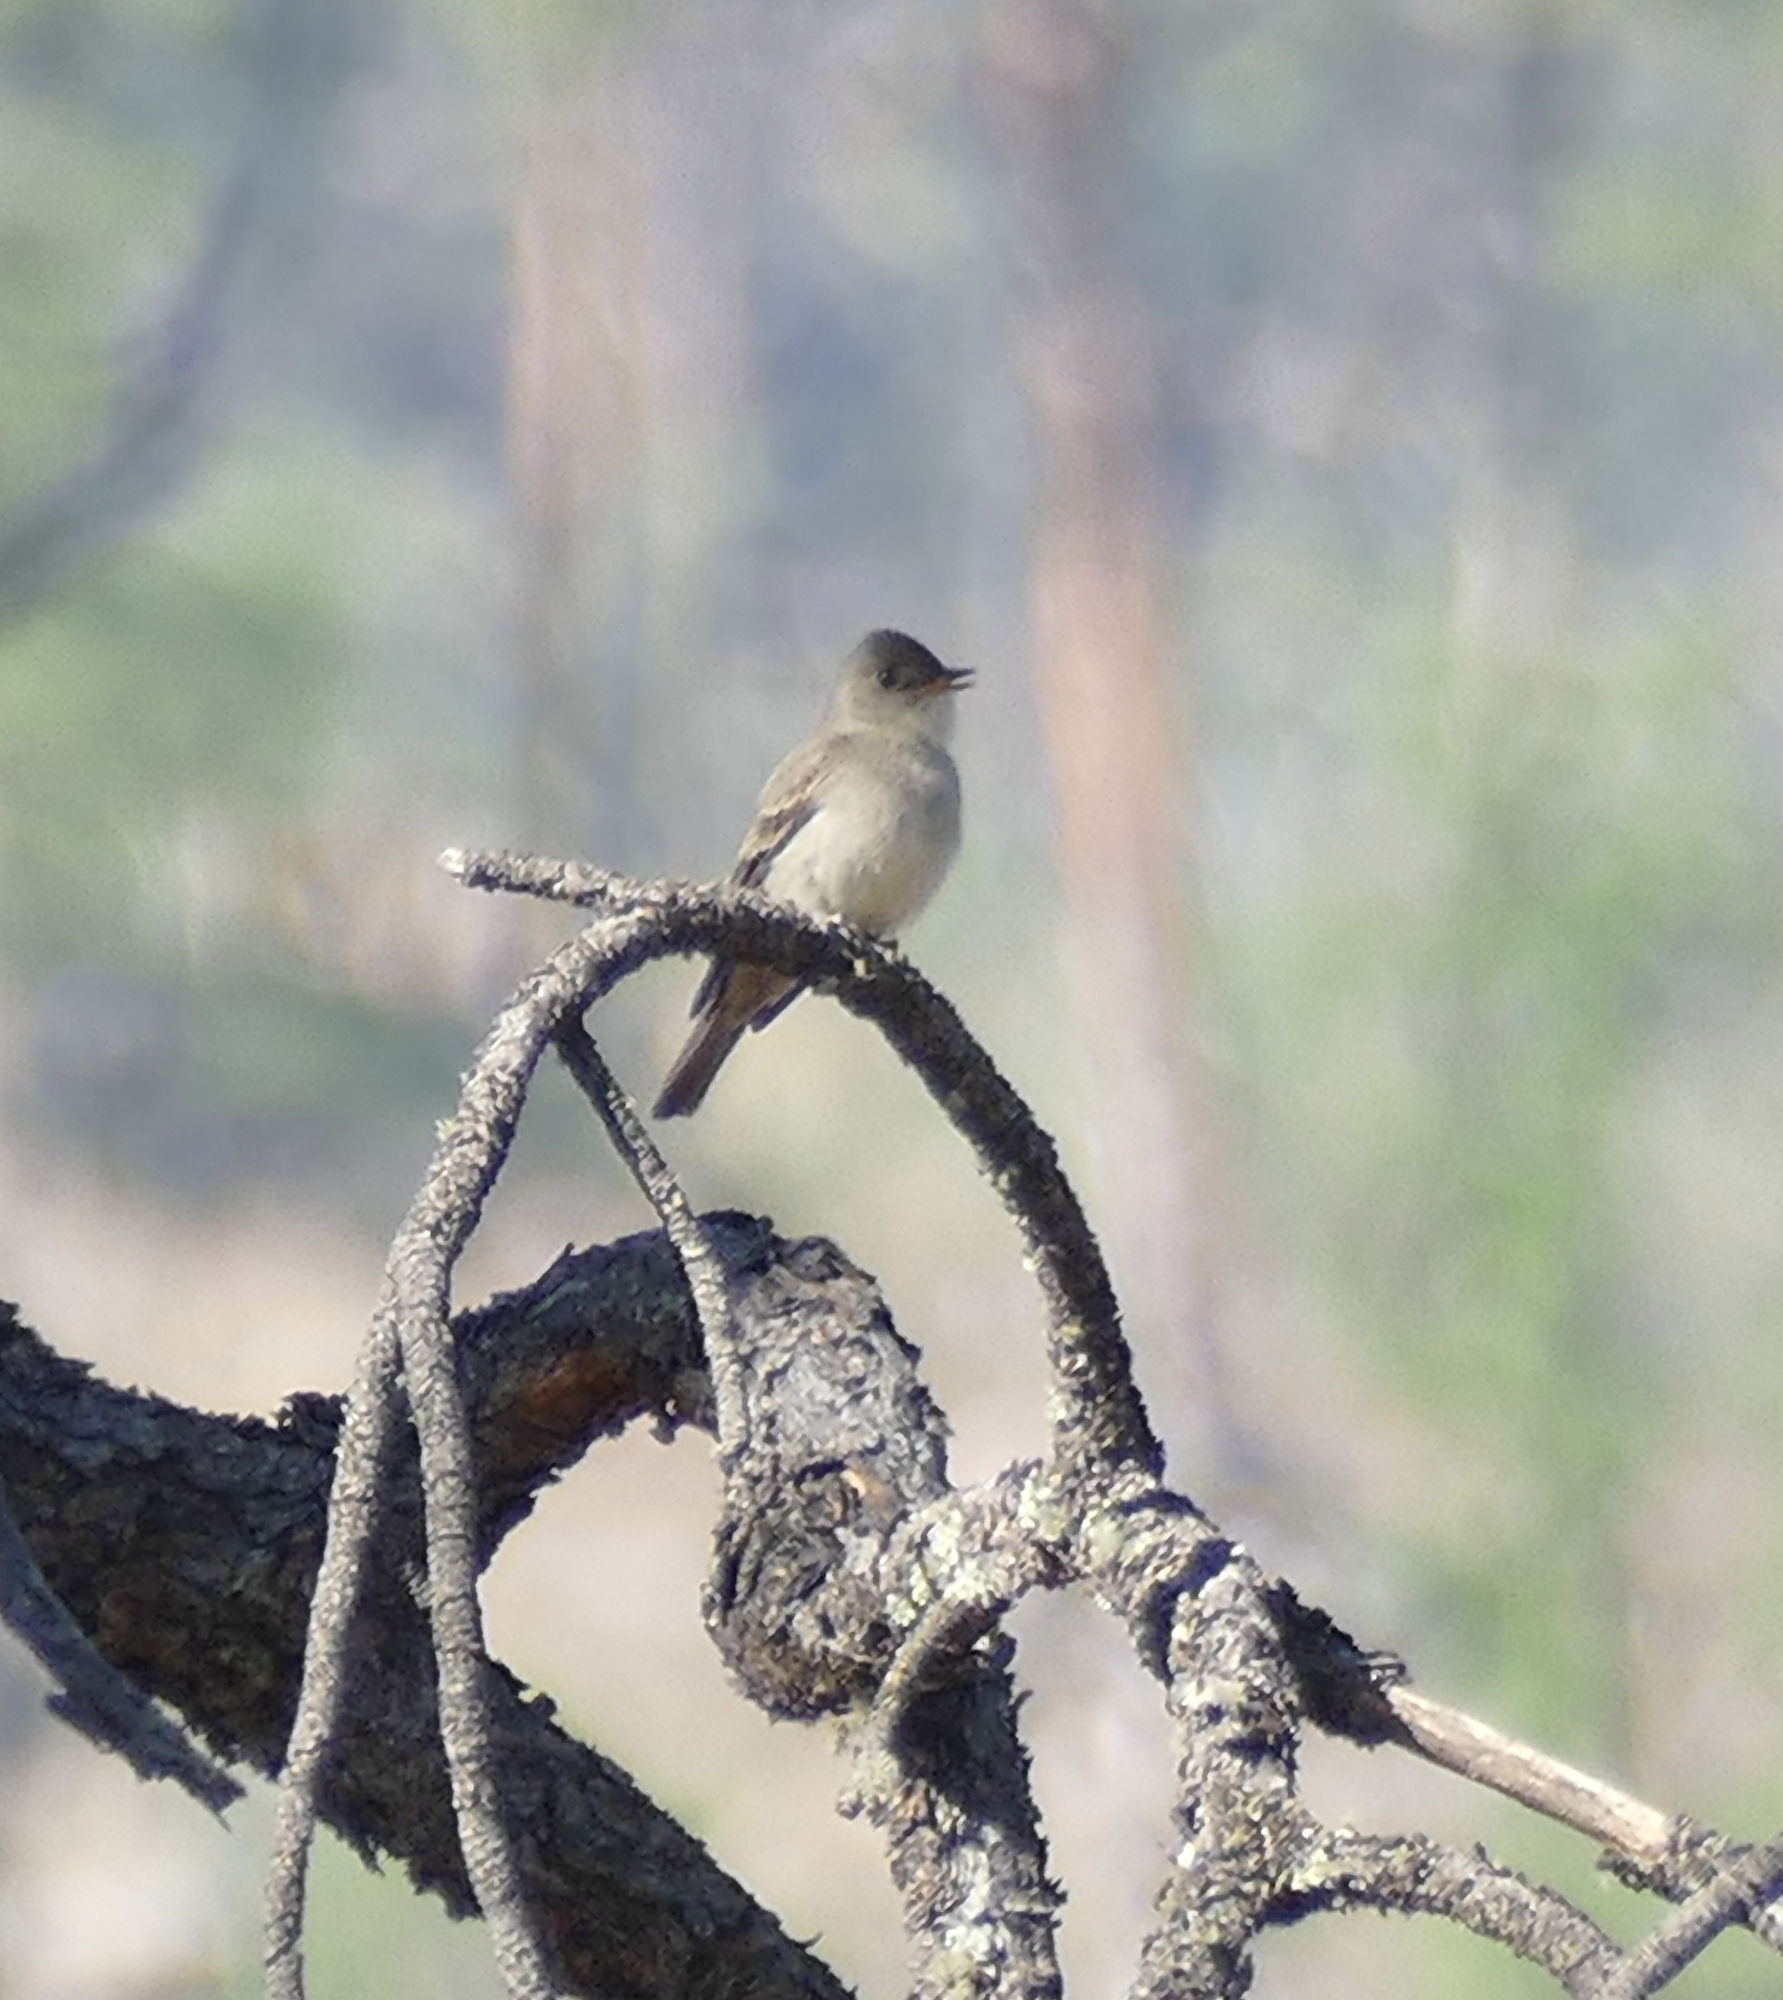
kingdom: Animalia
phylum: Chordata
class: Aves
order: Passeriformes
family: Tyrannidae
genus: Contopus
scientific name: Contopus sordidulus
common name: Western wood-pewee
